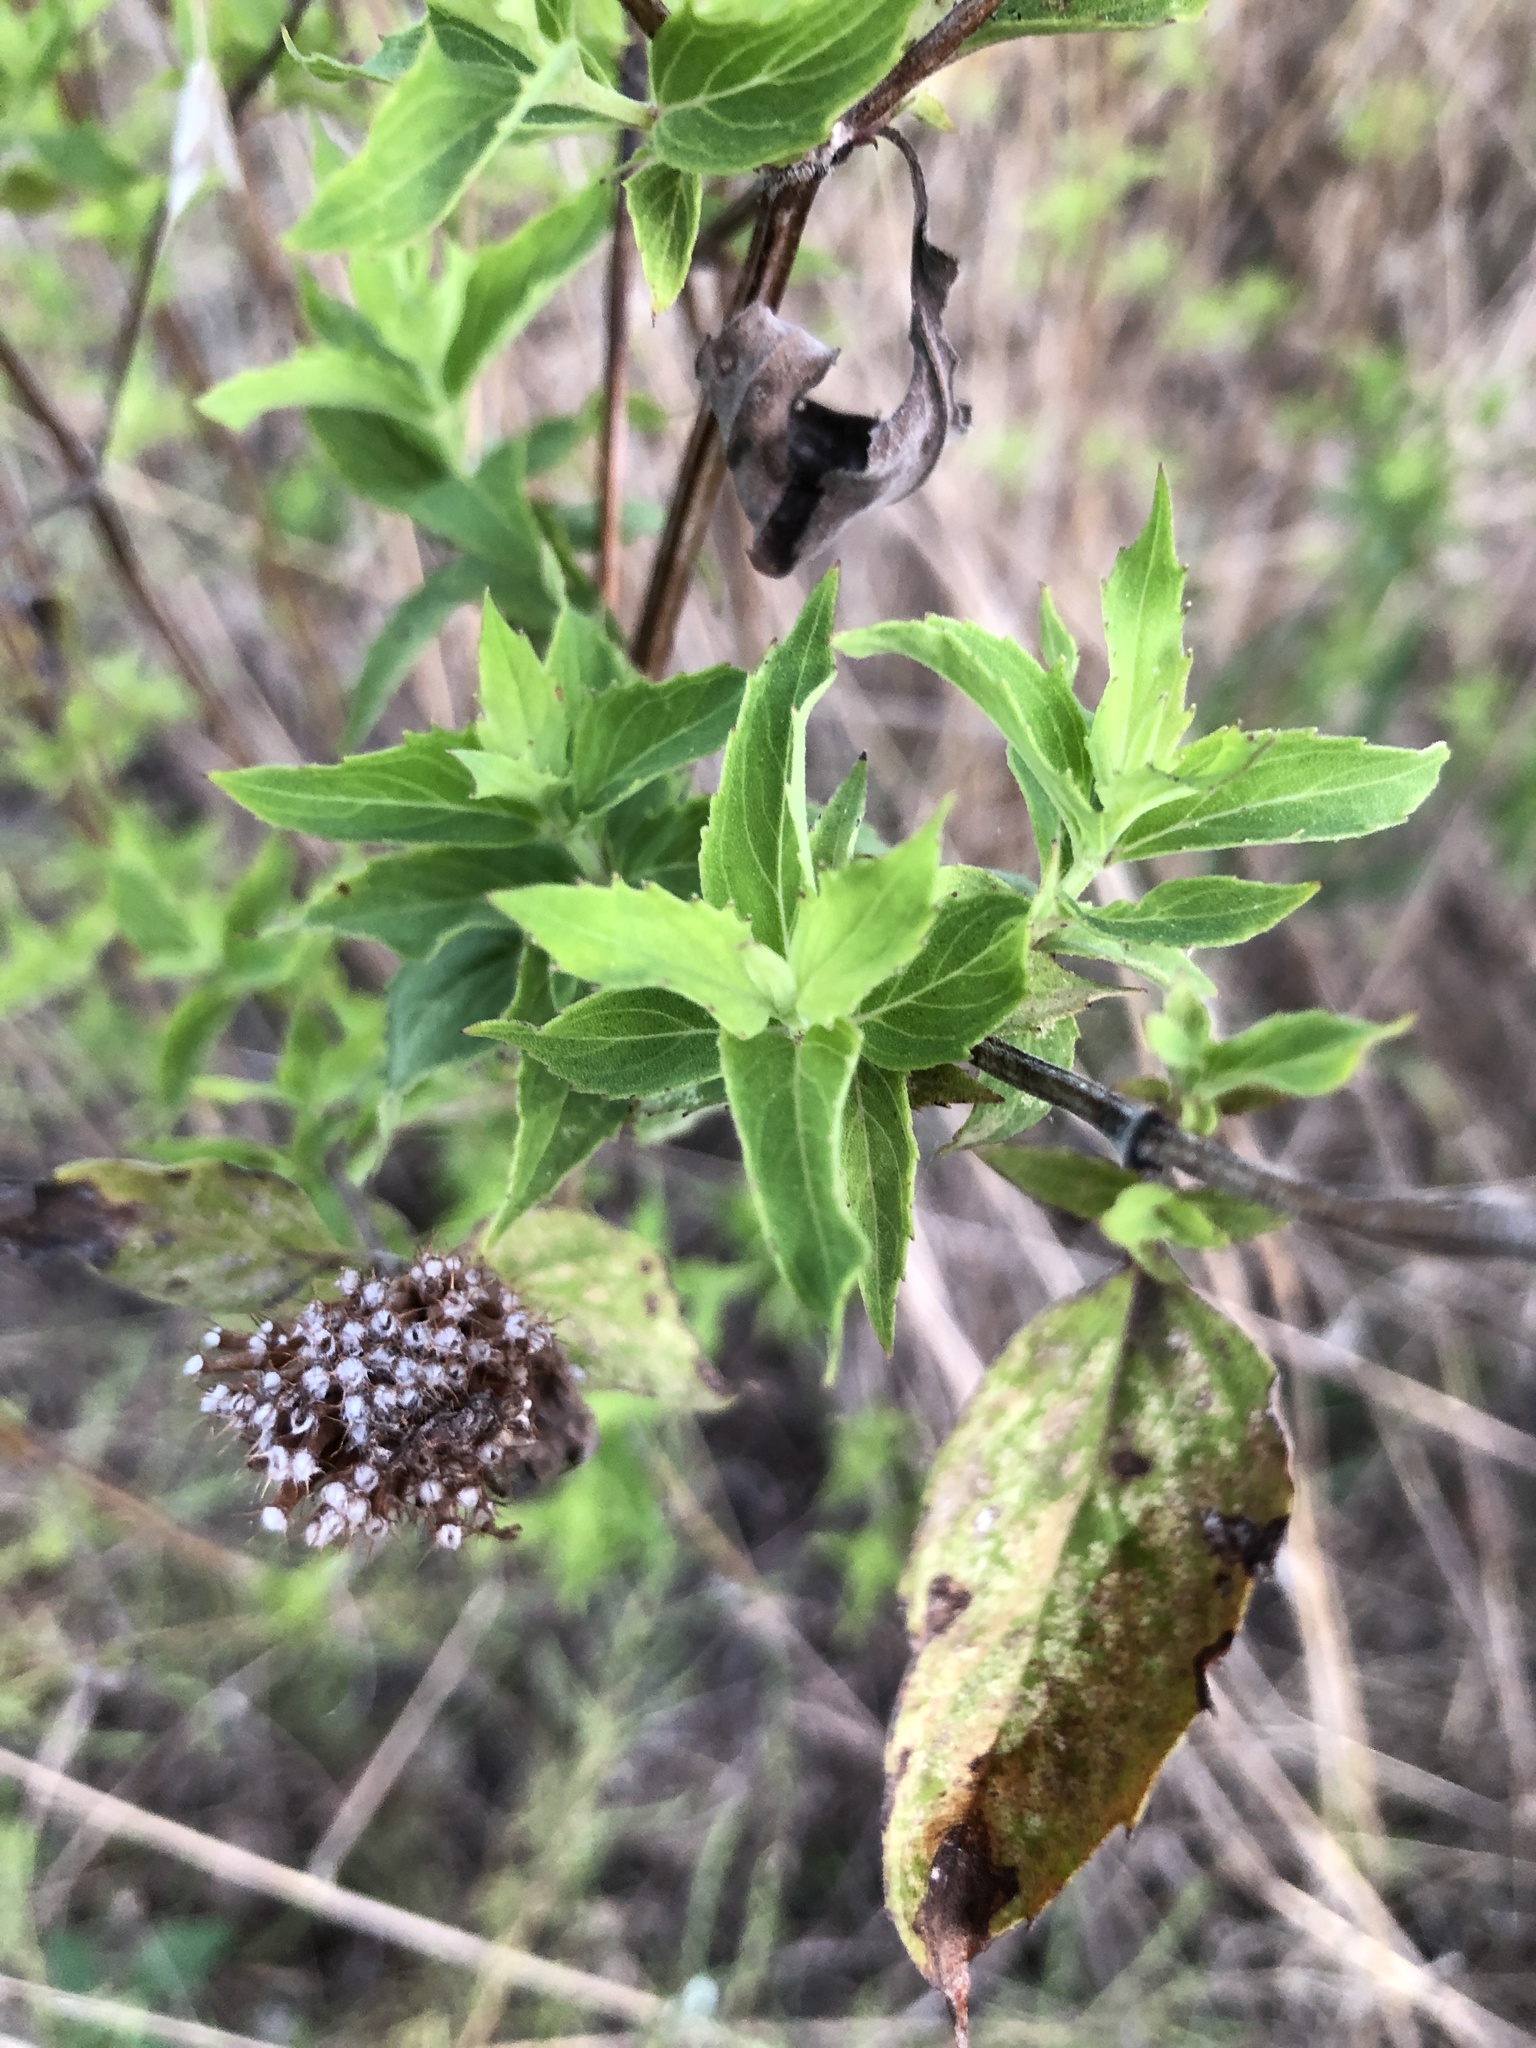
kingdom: Plantae
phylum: Tracheophyta
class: Magnoliopsida
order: Lamiales
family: Lamiaceae
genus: Monarda
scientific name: Monarda fistulosa
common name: Purple beebalm
